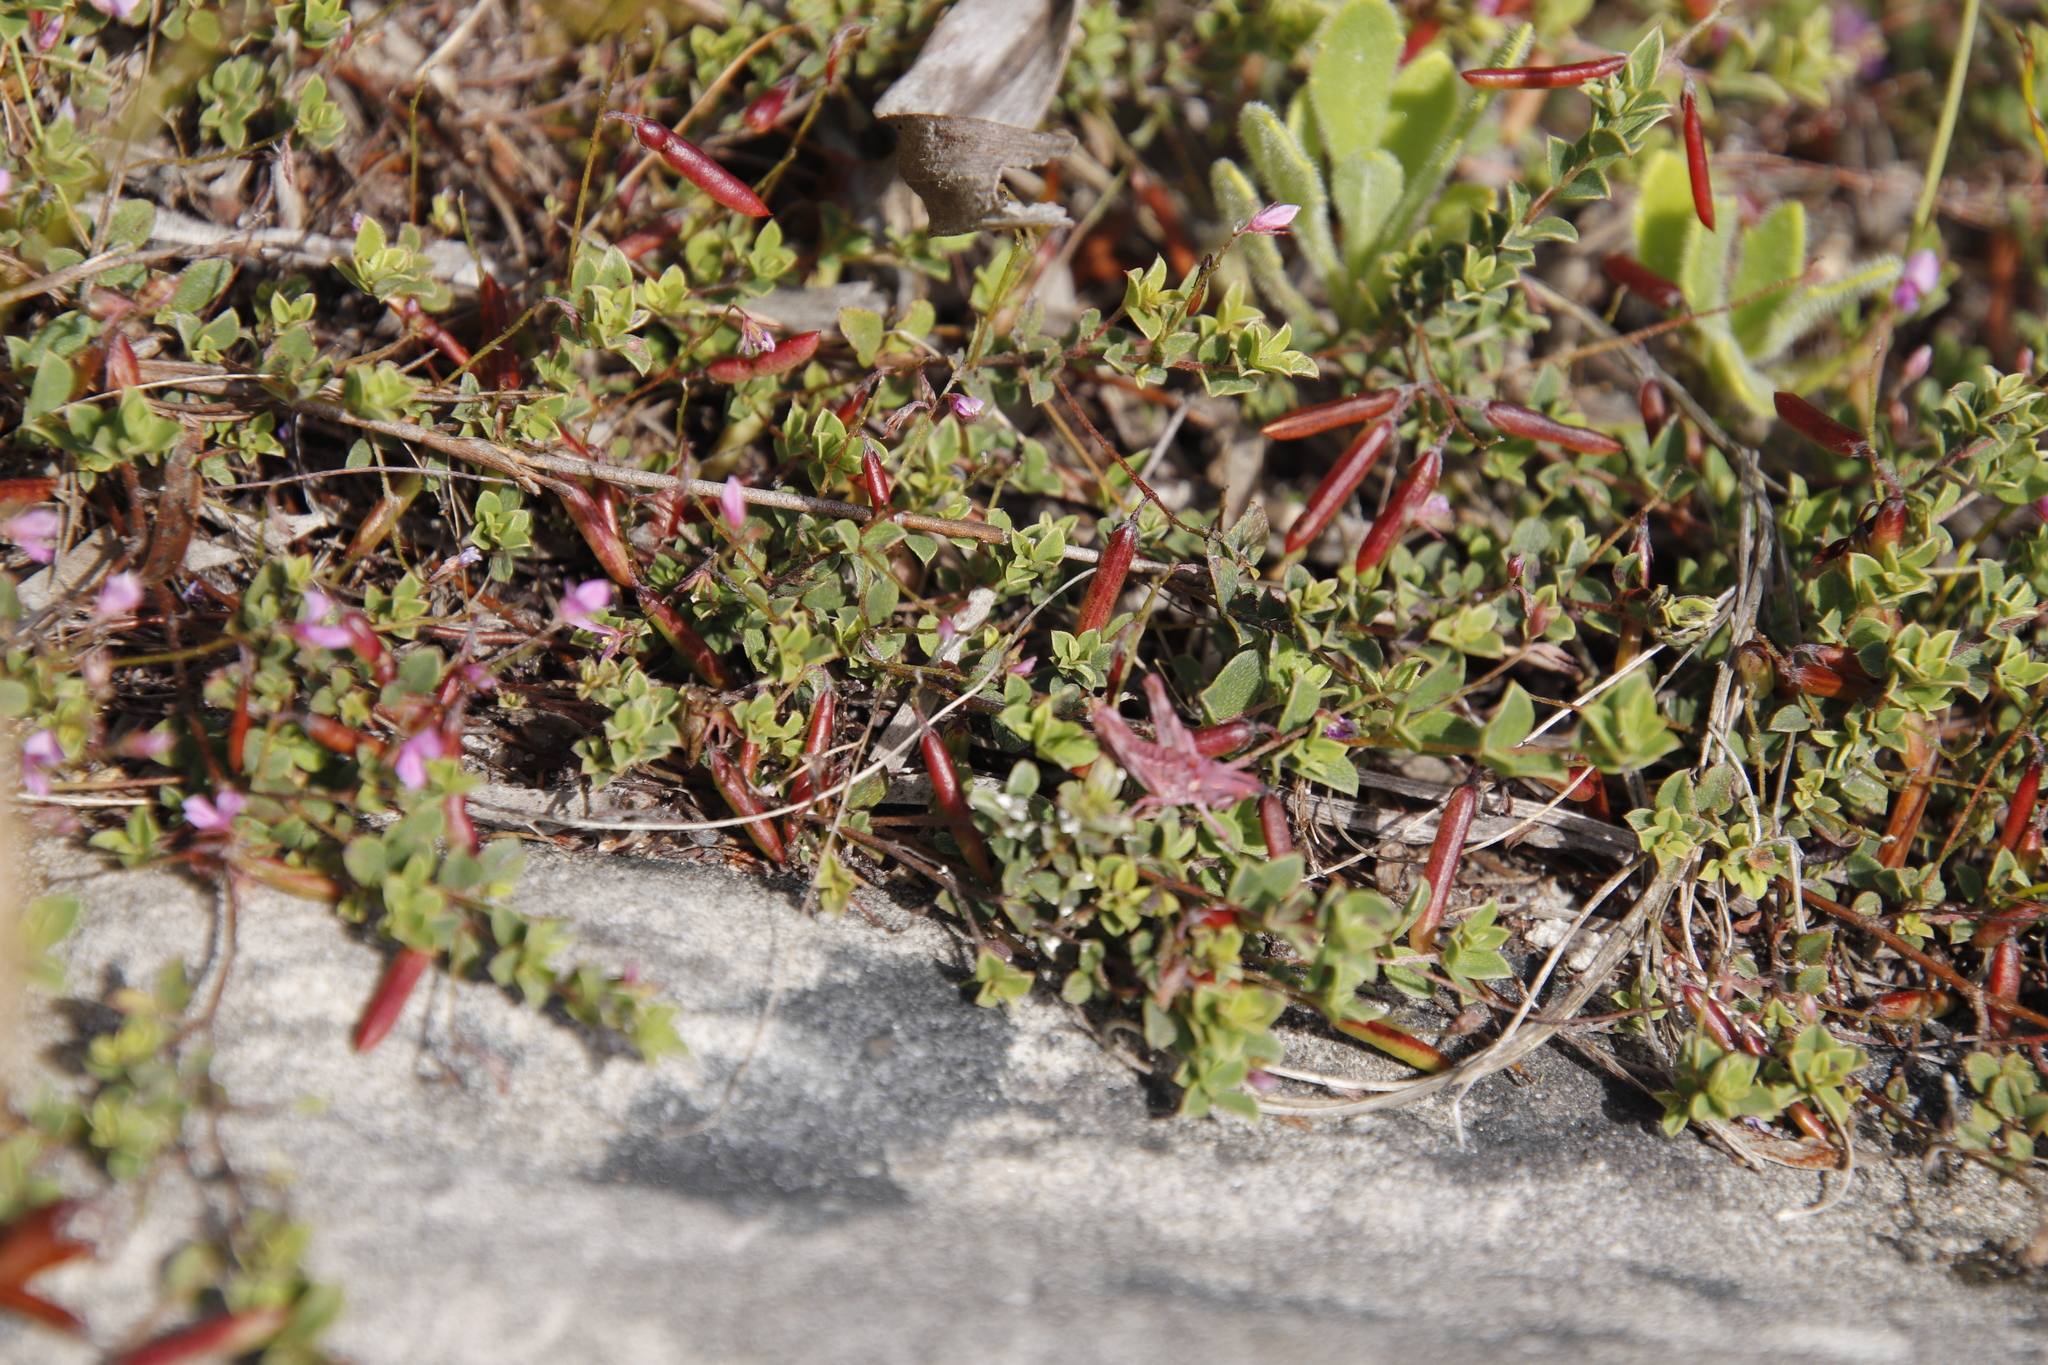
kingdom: Plantae
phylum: Tracheophyta
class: Magnoliopsida
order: Fabales
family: Fabaceae
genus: Indigofera
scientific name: Indigofera sarmentosa
